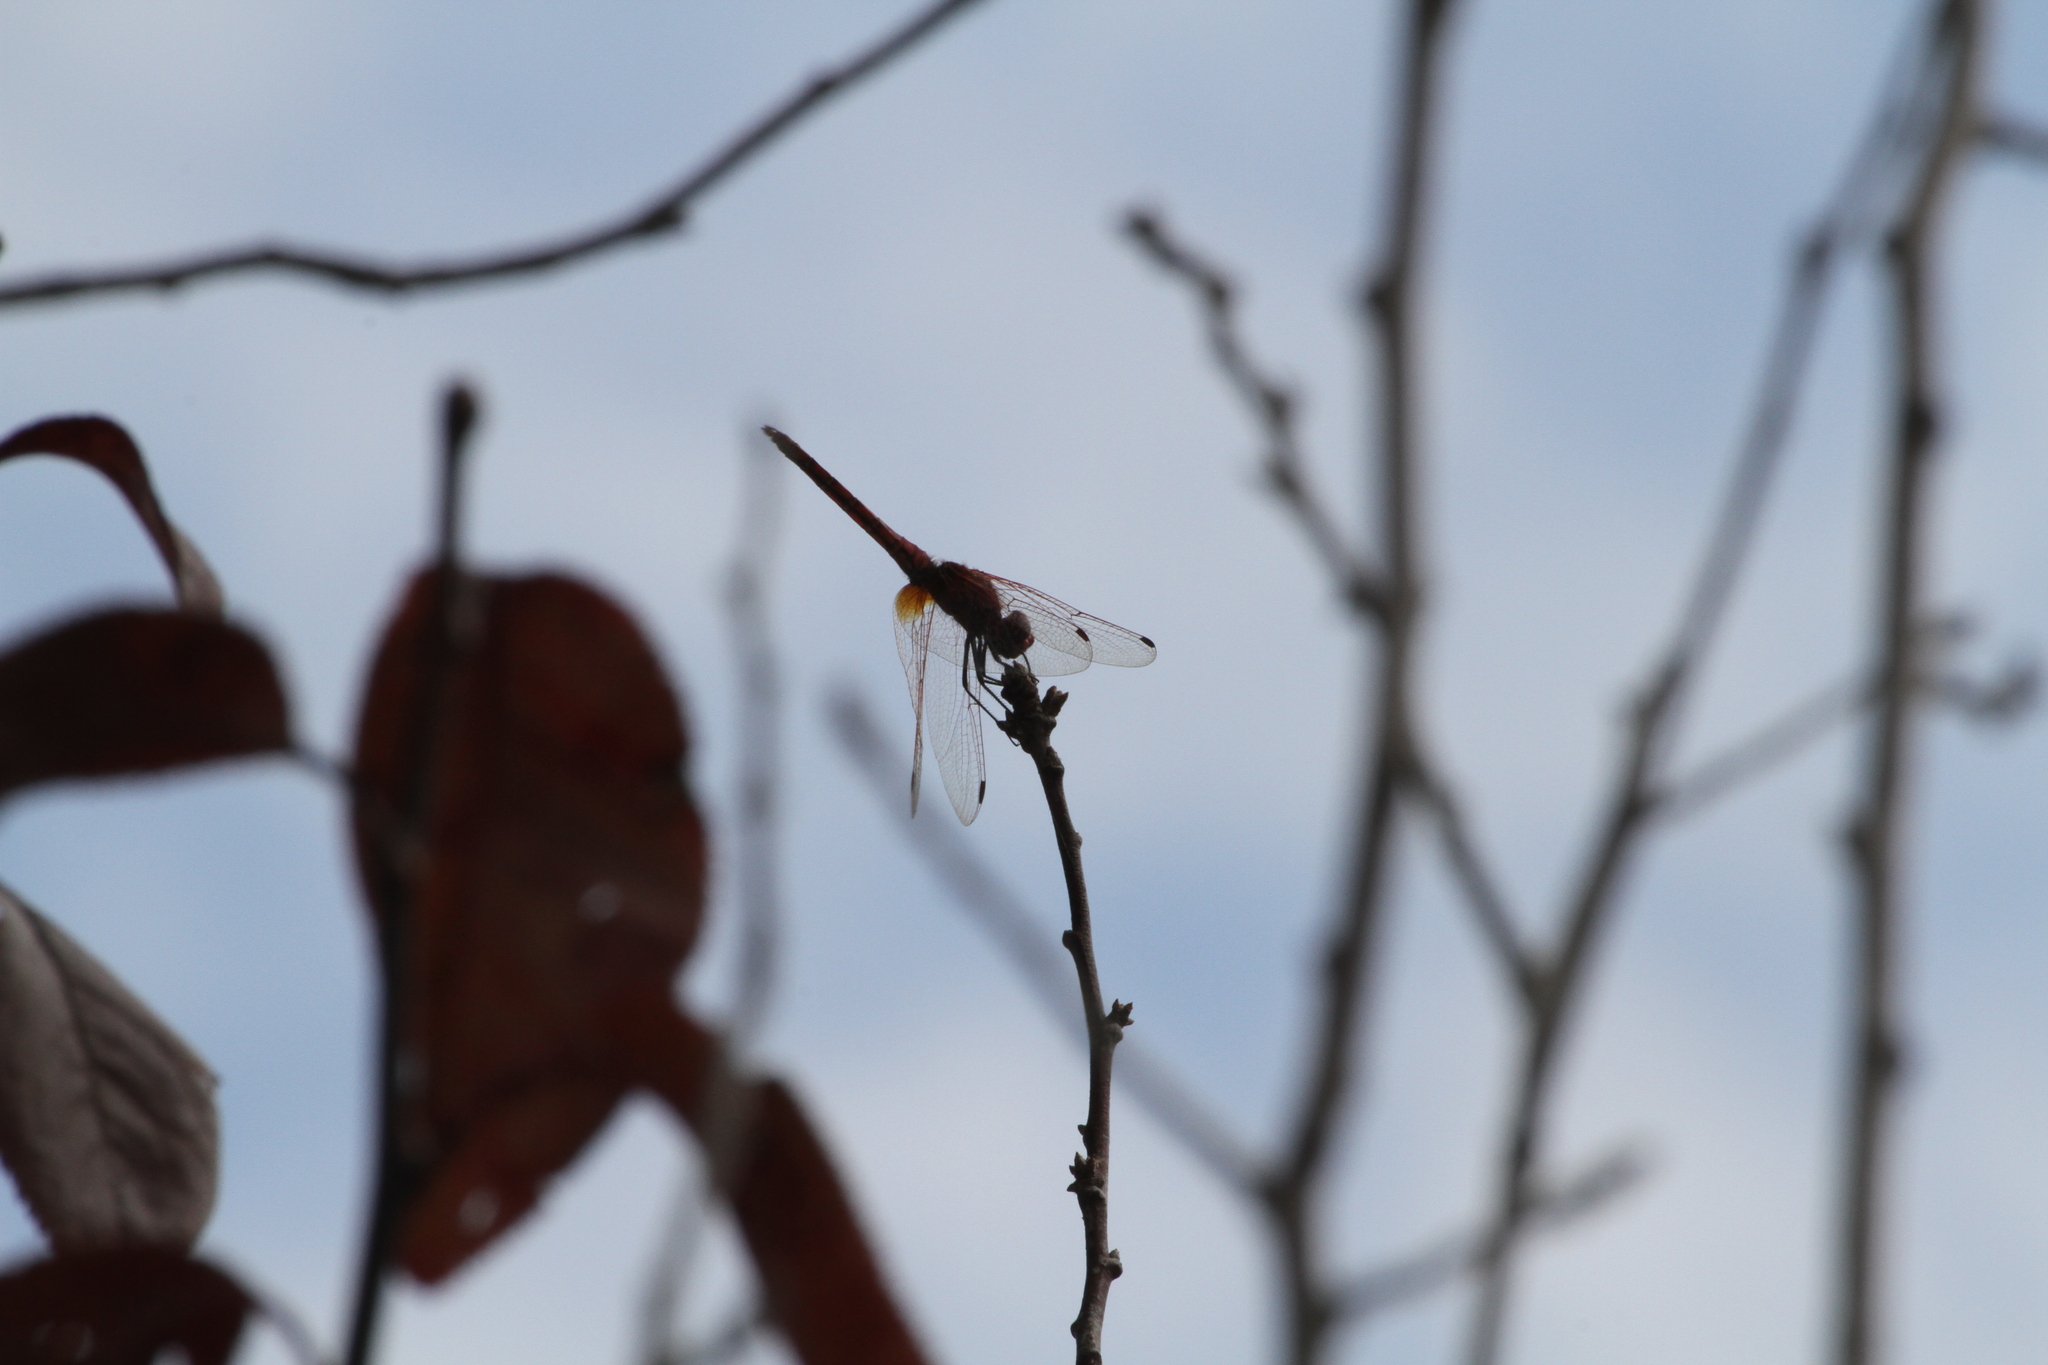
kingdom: Animalia
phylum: Arthropoda
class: Insecta
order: Odonata
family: Libellulidae
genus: Trithemis
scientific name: Trithemis annulata
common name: Violet dropwing
